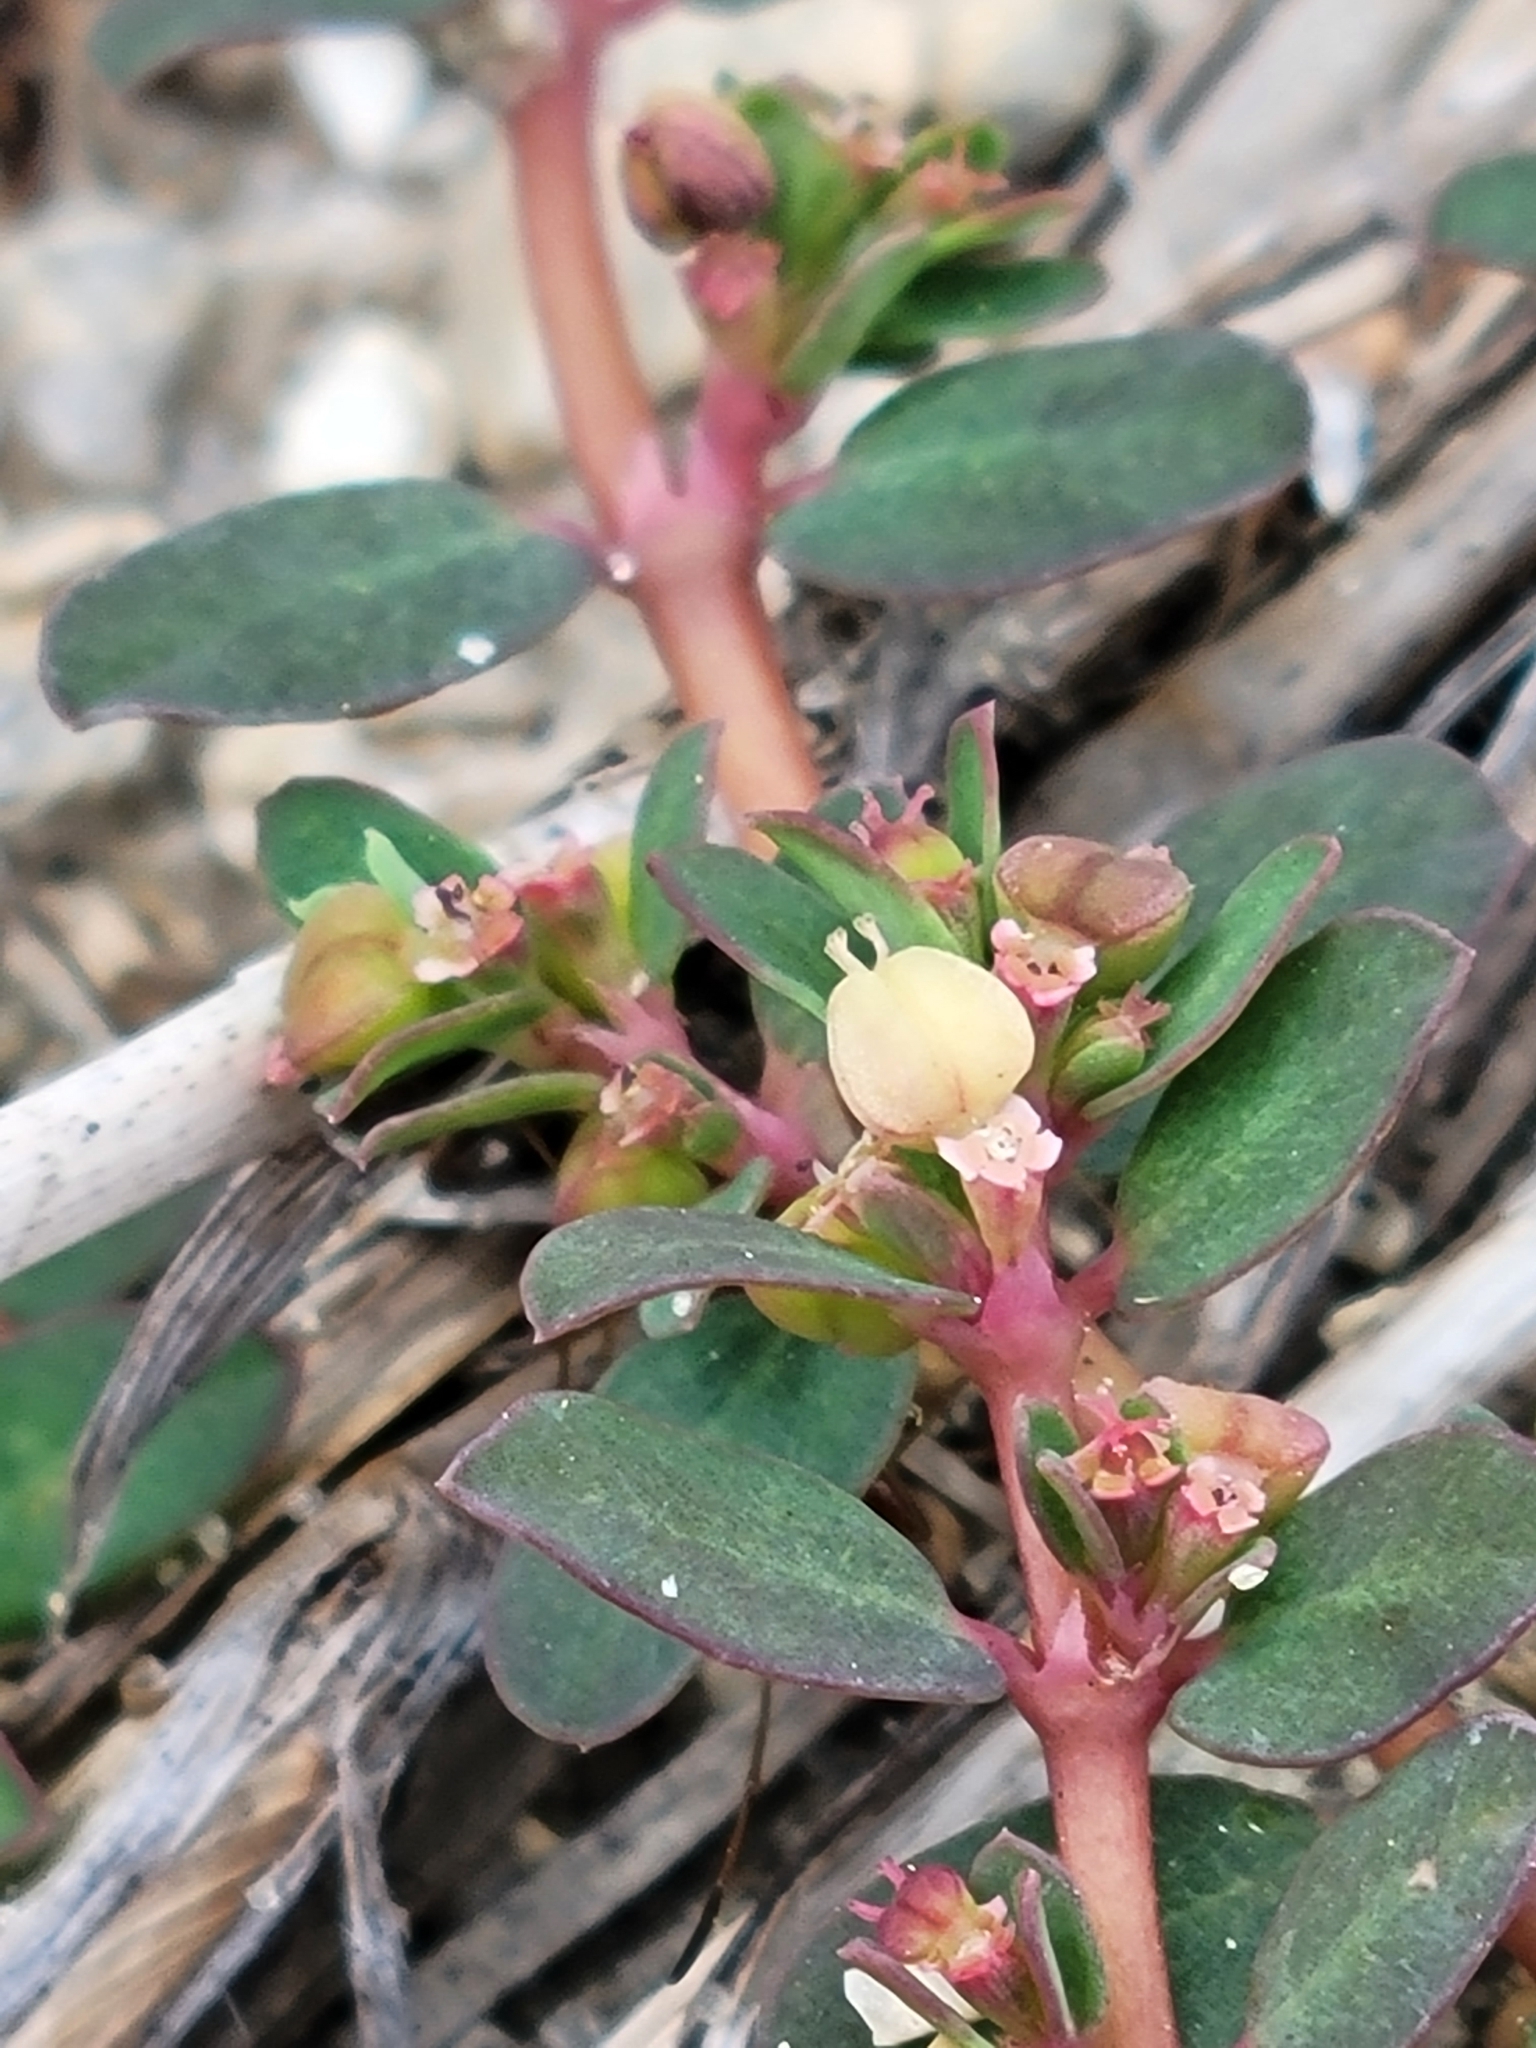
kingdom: Plantae
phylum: Tracheophyta
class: Magnoliopsida
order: Malpighiales
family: Euphorbiaceae
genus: Euphorbia
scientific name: Euphorbia blodgettii
